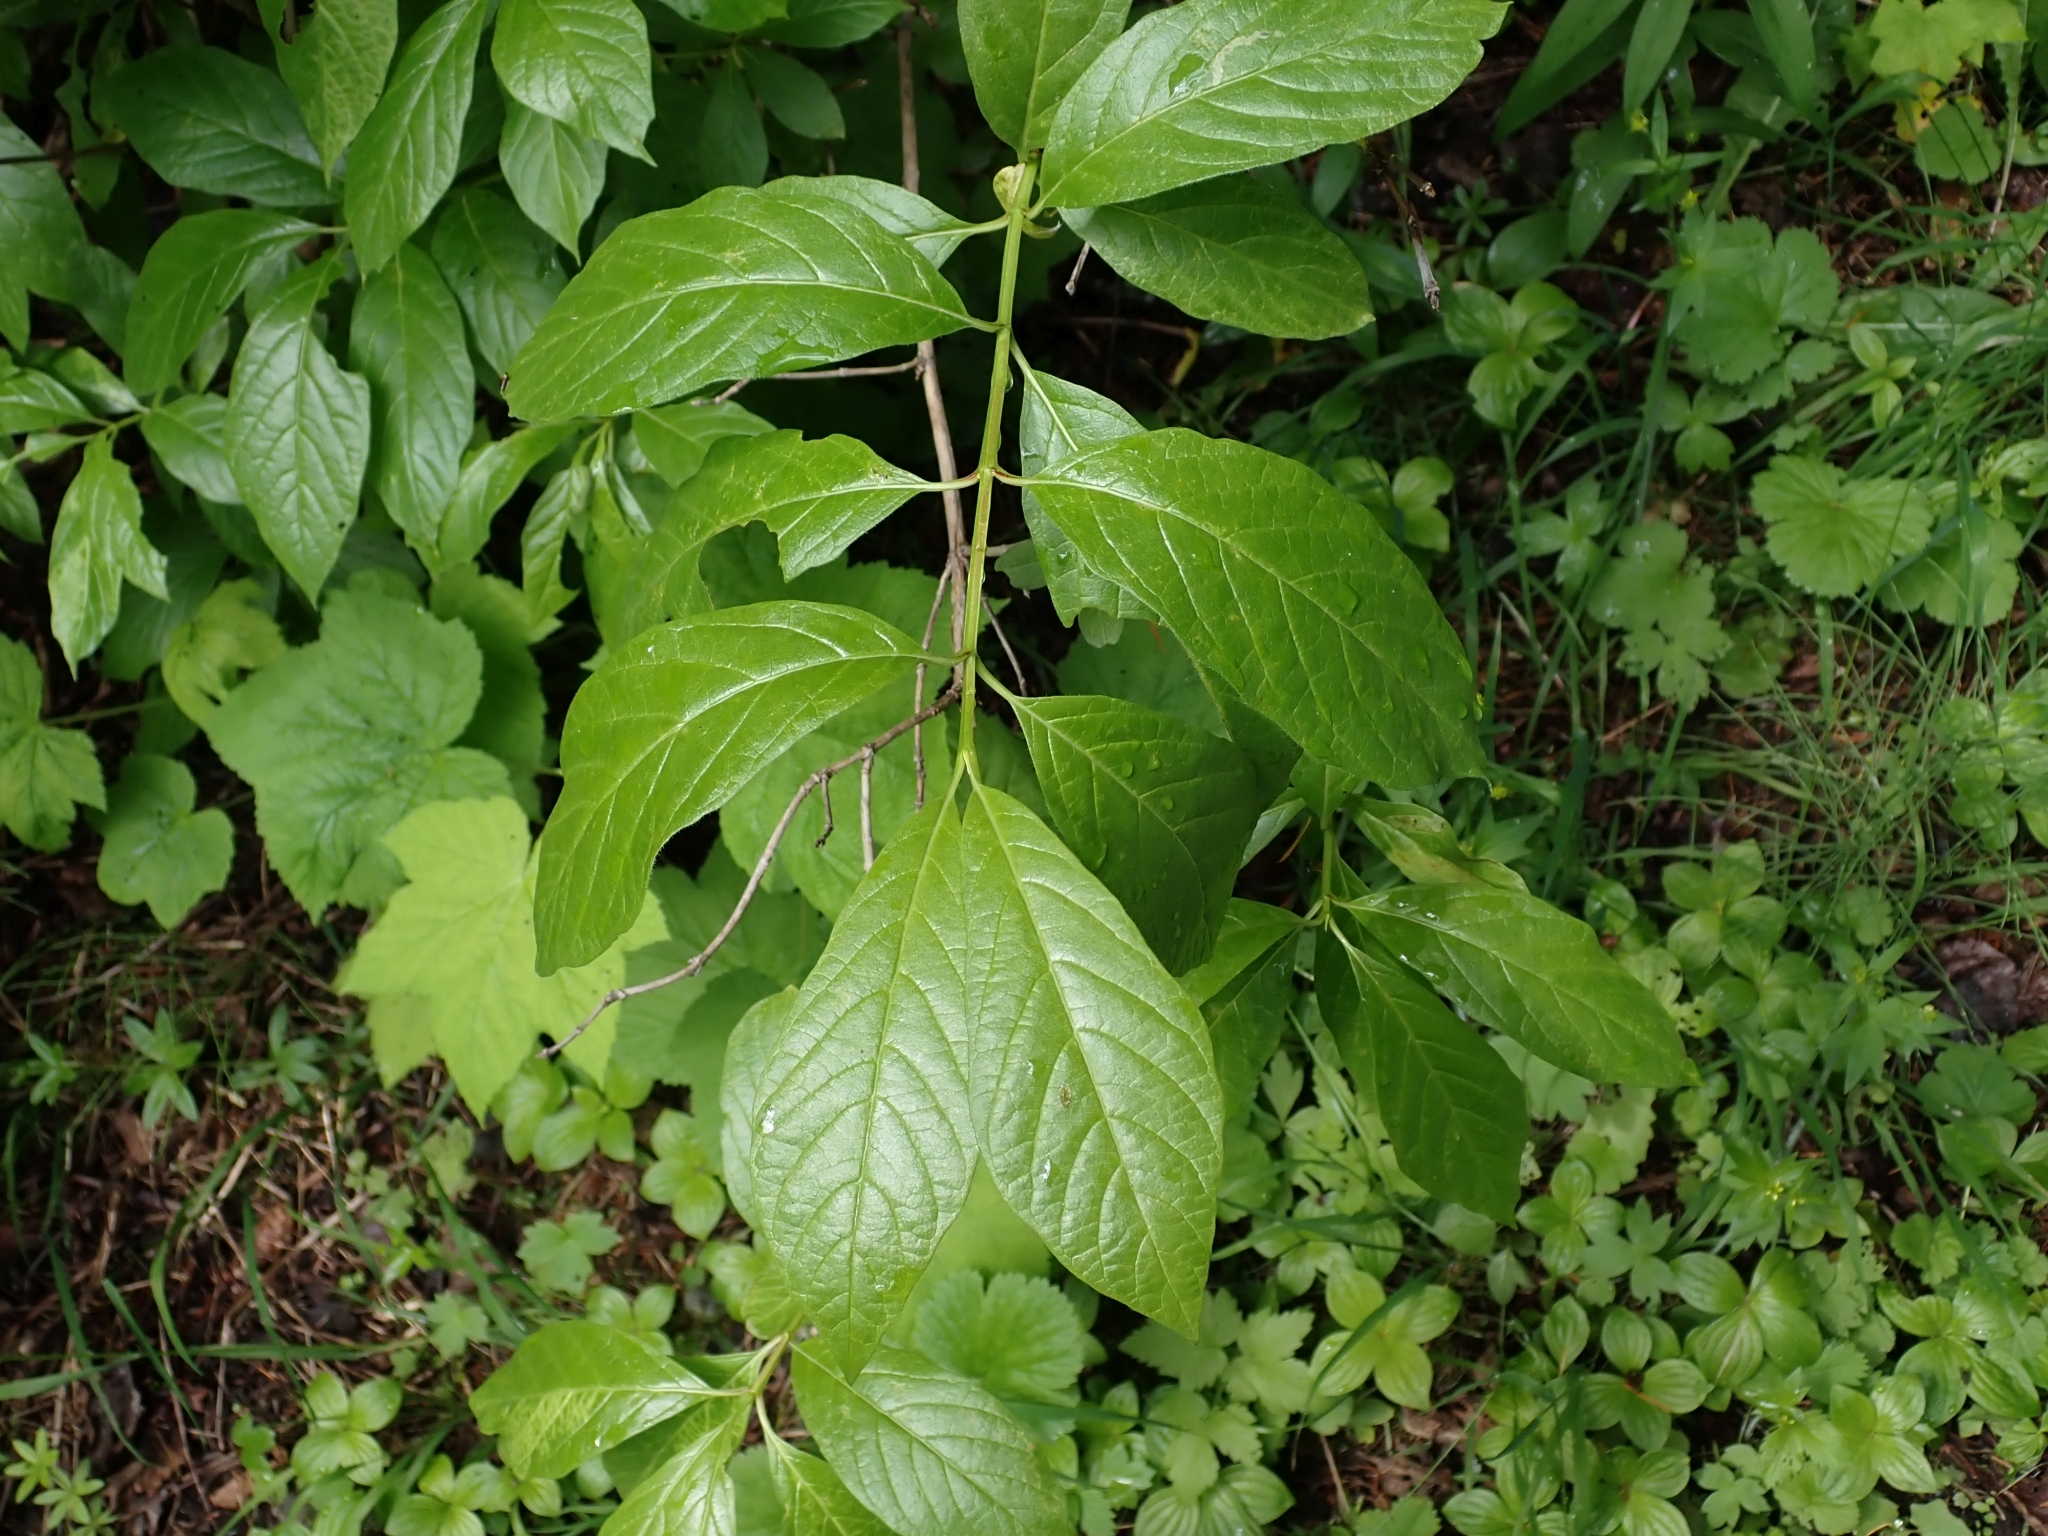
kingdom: Plantae
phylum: Tracheophyta
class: Magnoliopsida
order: Dipsacales
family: Caprifoliaceae
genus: Lonicera
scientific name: Lonicera involucrata
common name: Californian honeysuckle
